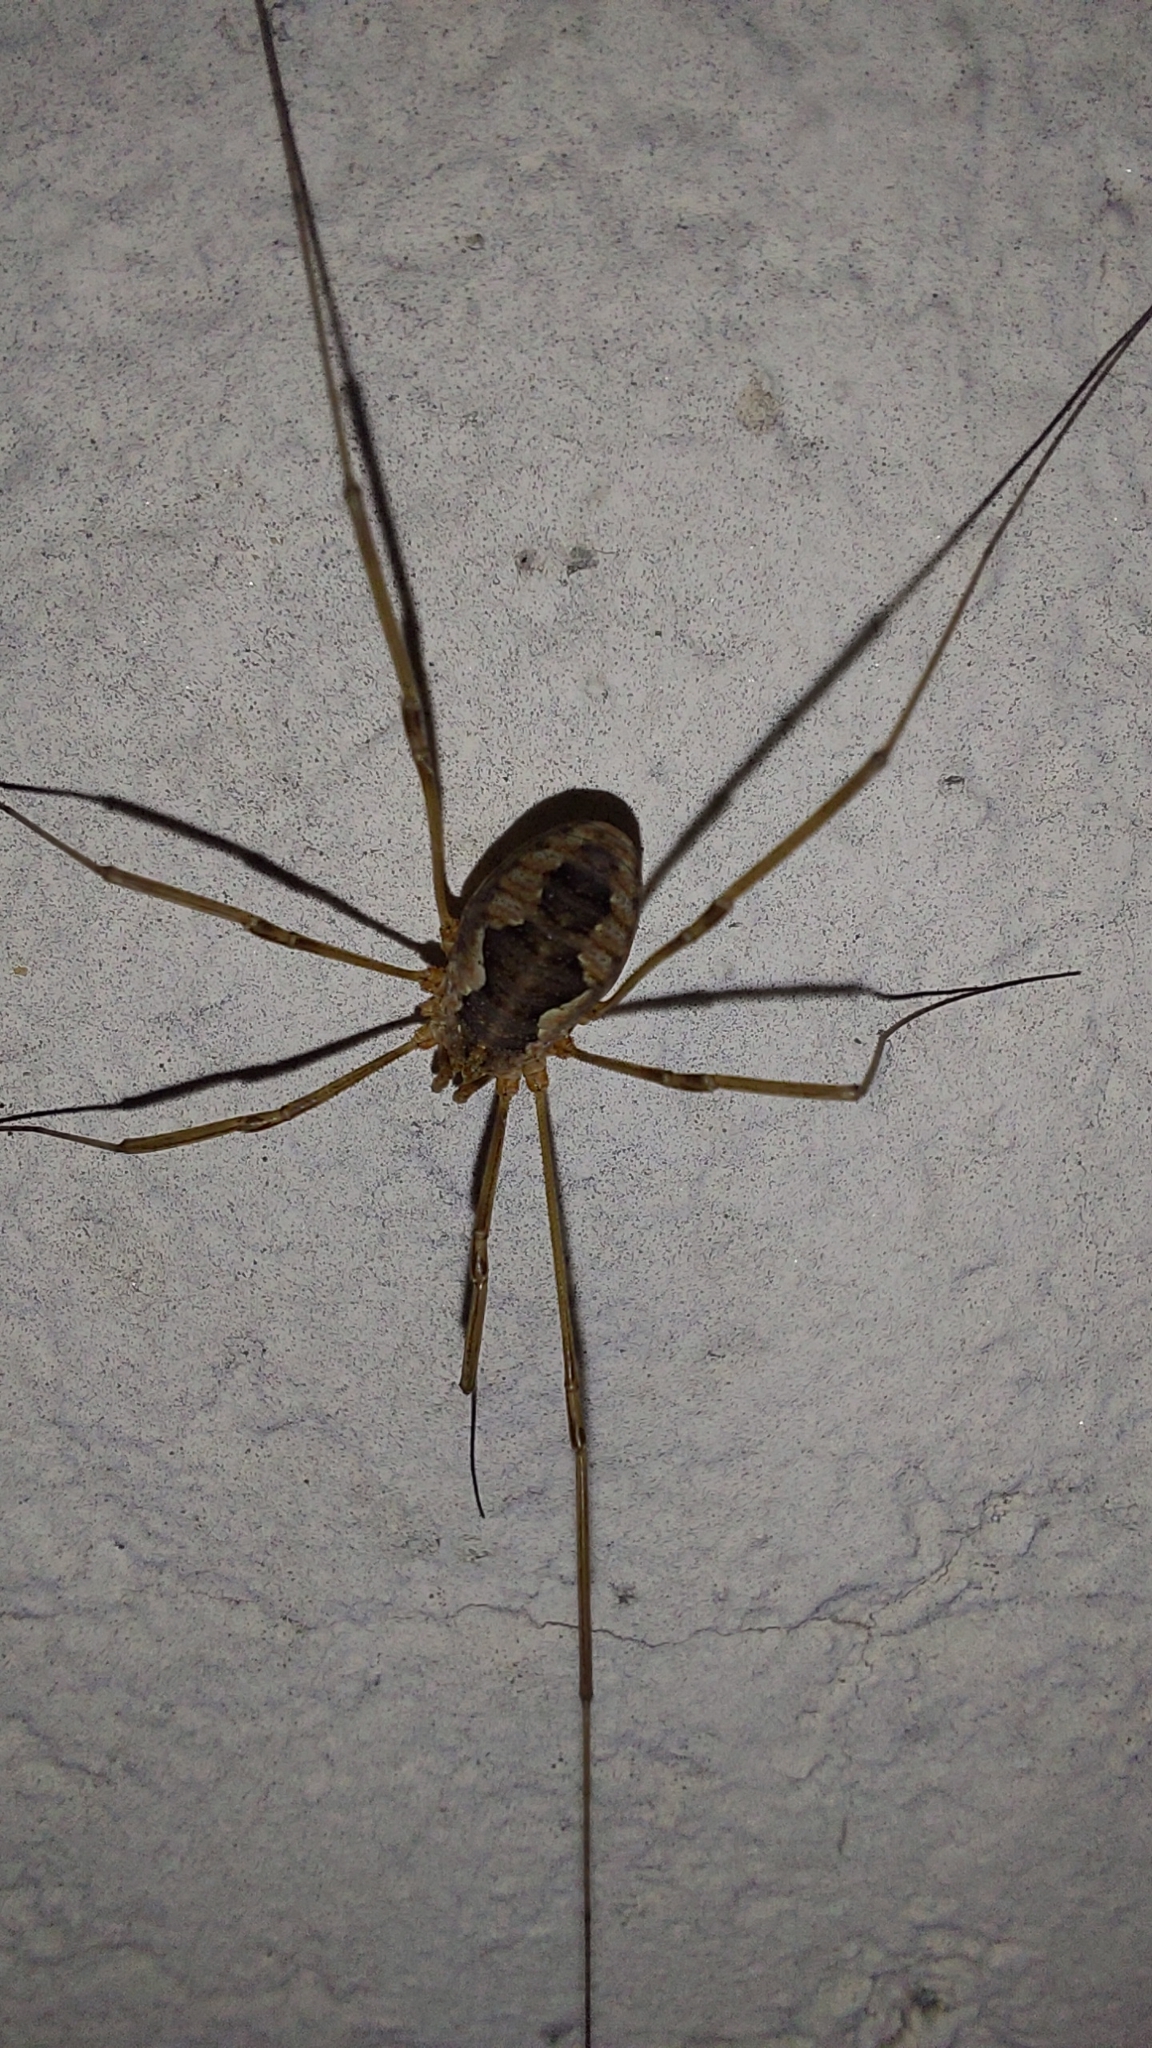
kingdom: Animalia
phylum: Arthropoda
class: Arachnida
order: Opiliones
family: Phalangiidae
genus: Phalangium
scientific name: Phalangium opilio
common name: Daddy longleg
